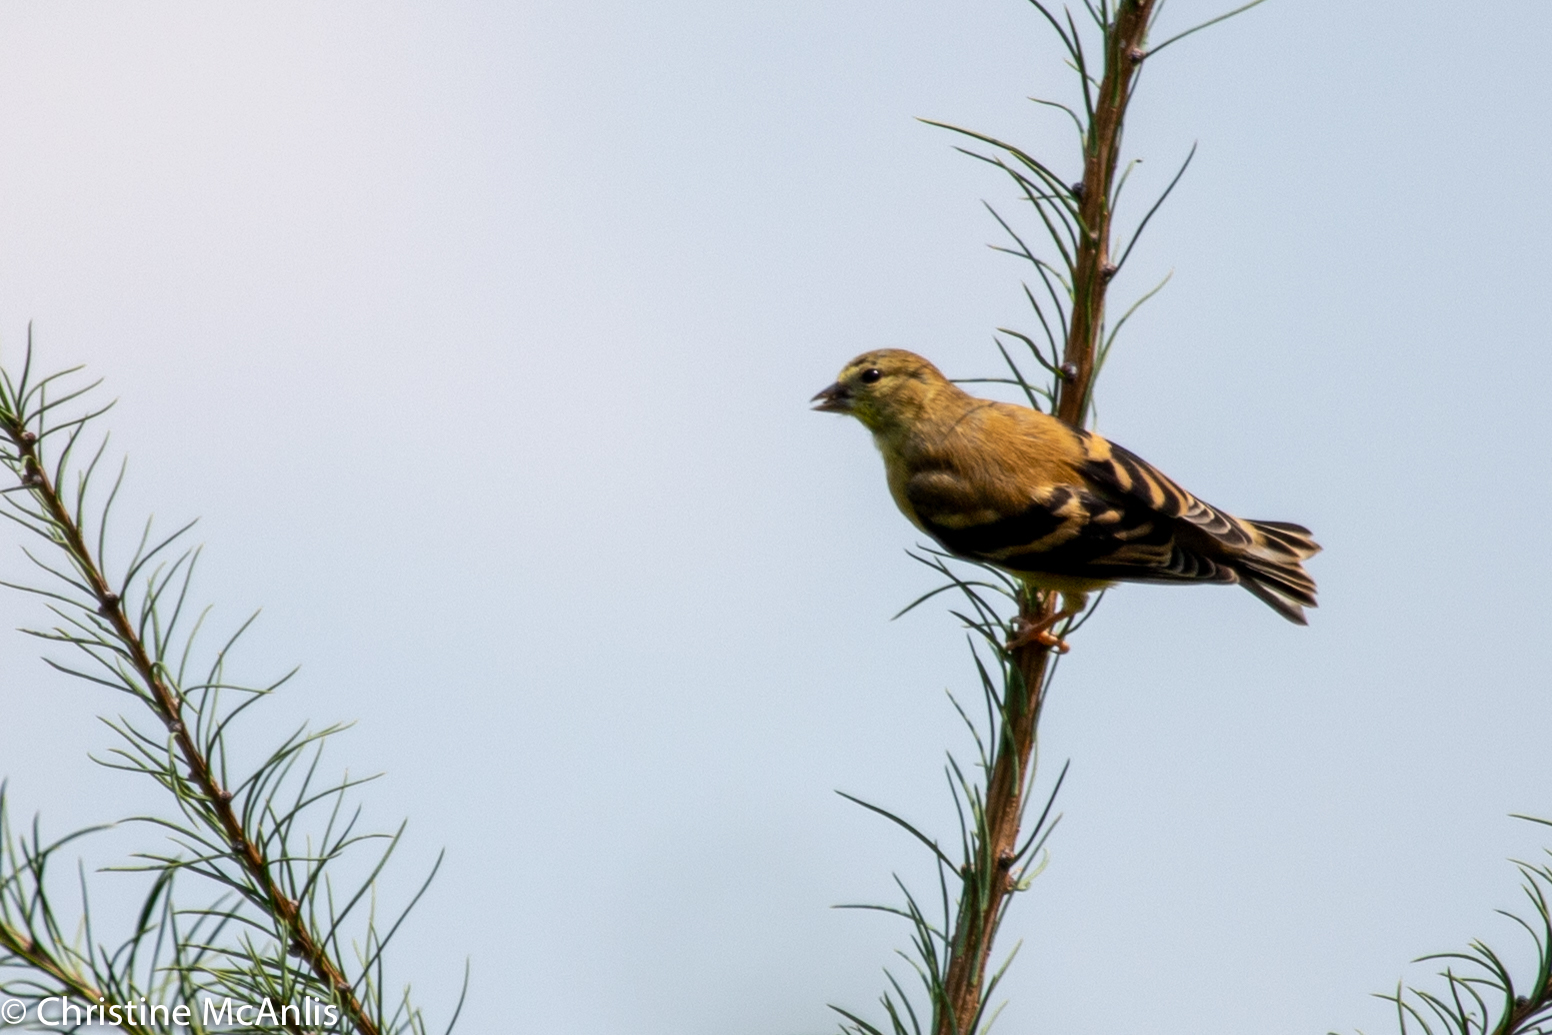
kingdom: Animalia
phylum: Chordata
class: Aves
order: Passeriformes
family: Fringillidae
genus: Spinus
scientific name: Spinus tristis
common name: American goldfinch
